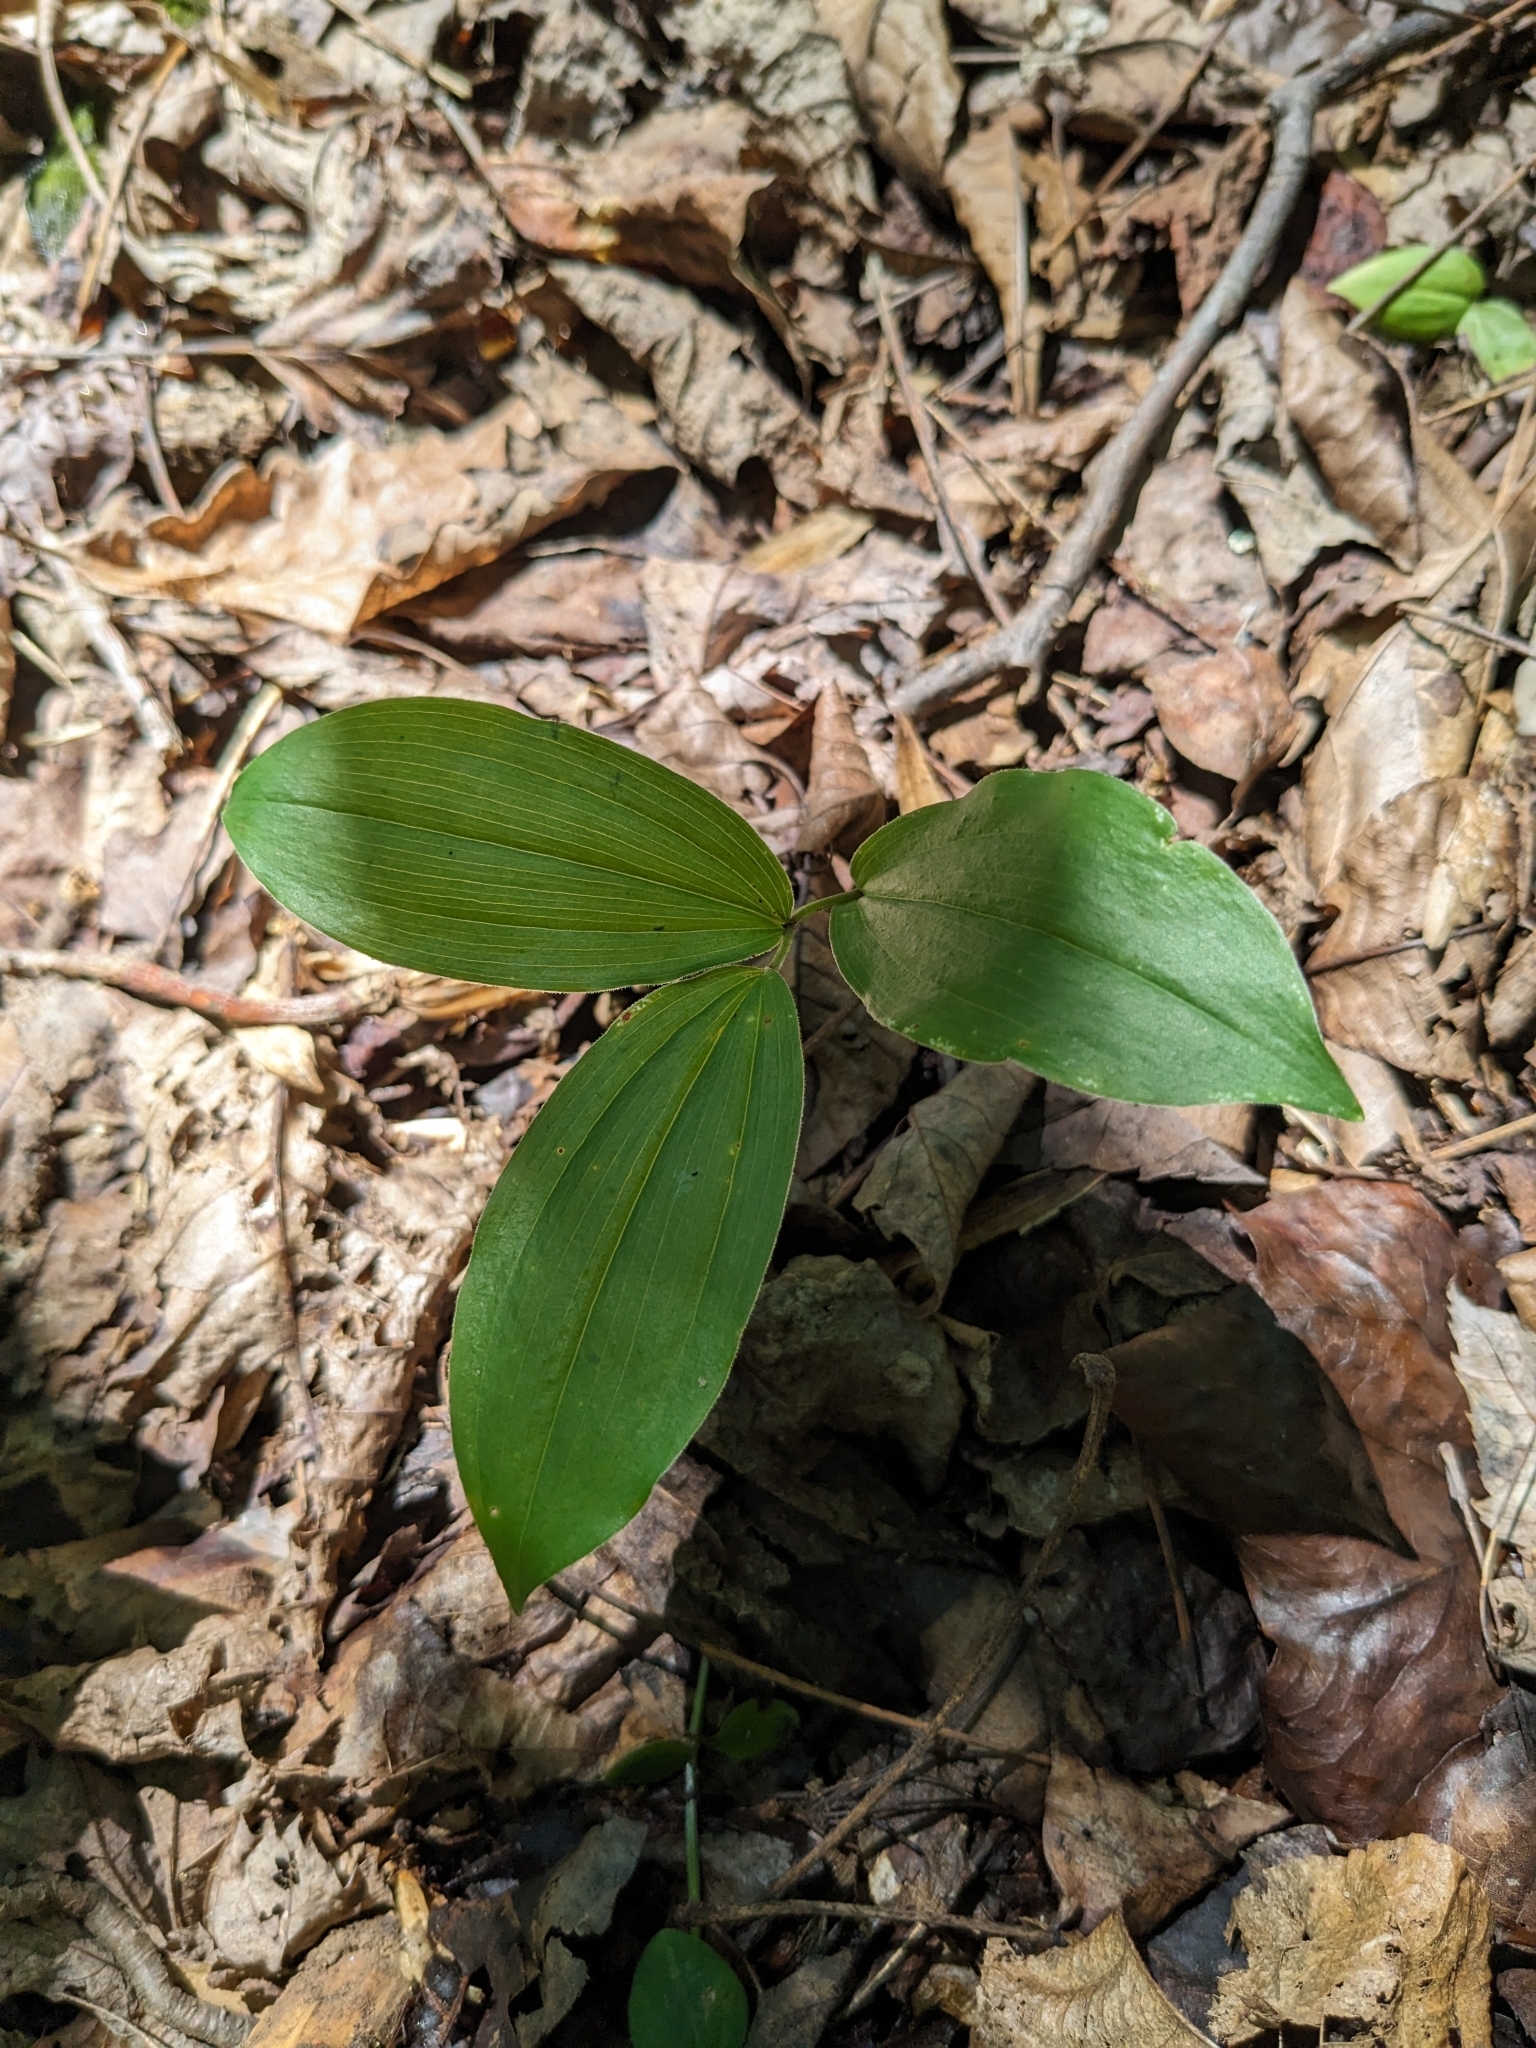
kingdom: Plantae
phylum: Tracheophyta
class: Liliopsida
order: Asparagales
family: Asparagaceae
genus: Maianthemum
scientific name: Maianthemum racemosum
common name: False spikenard
